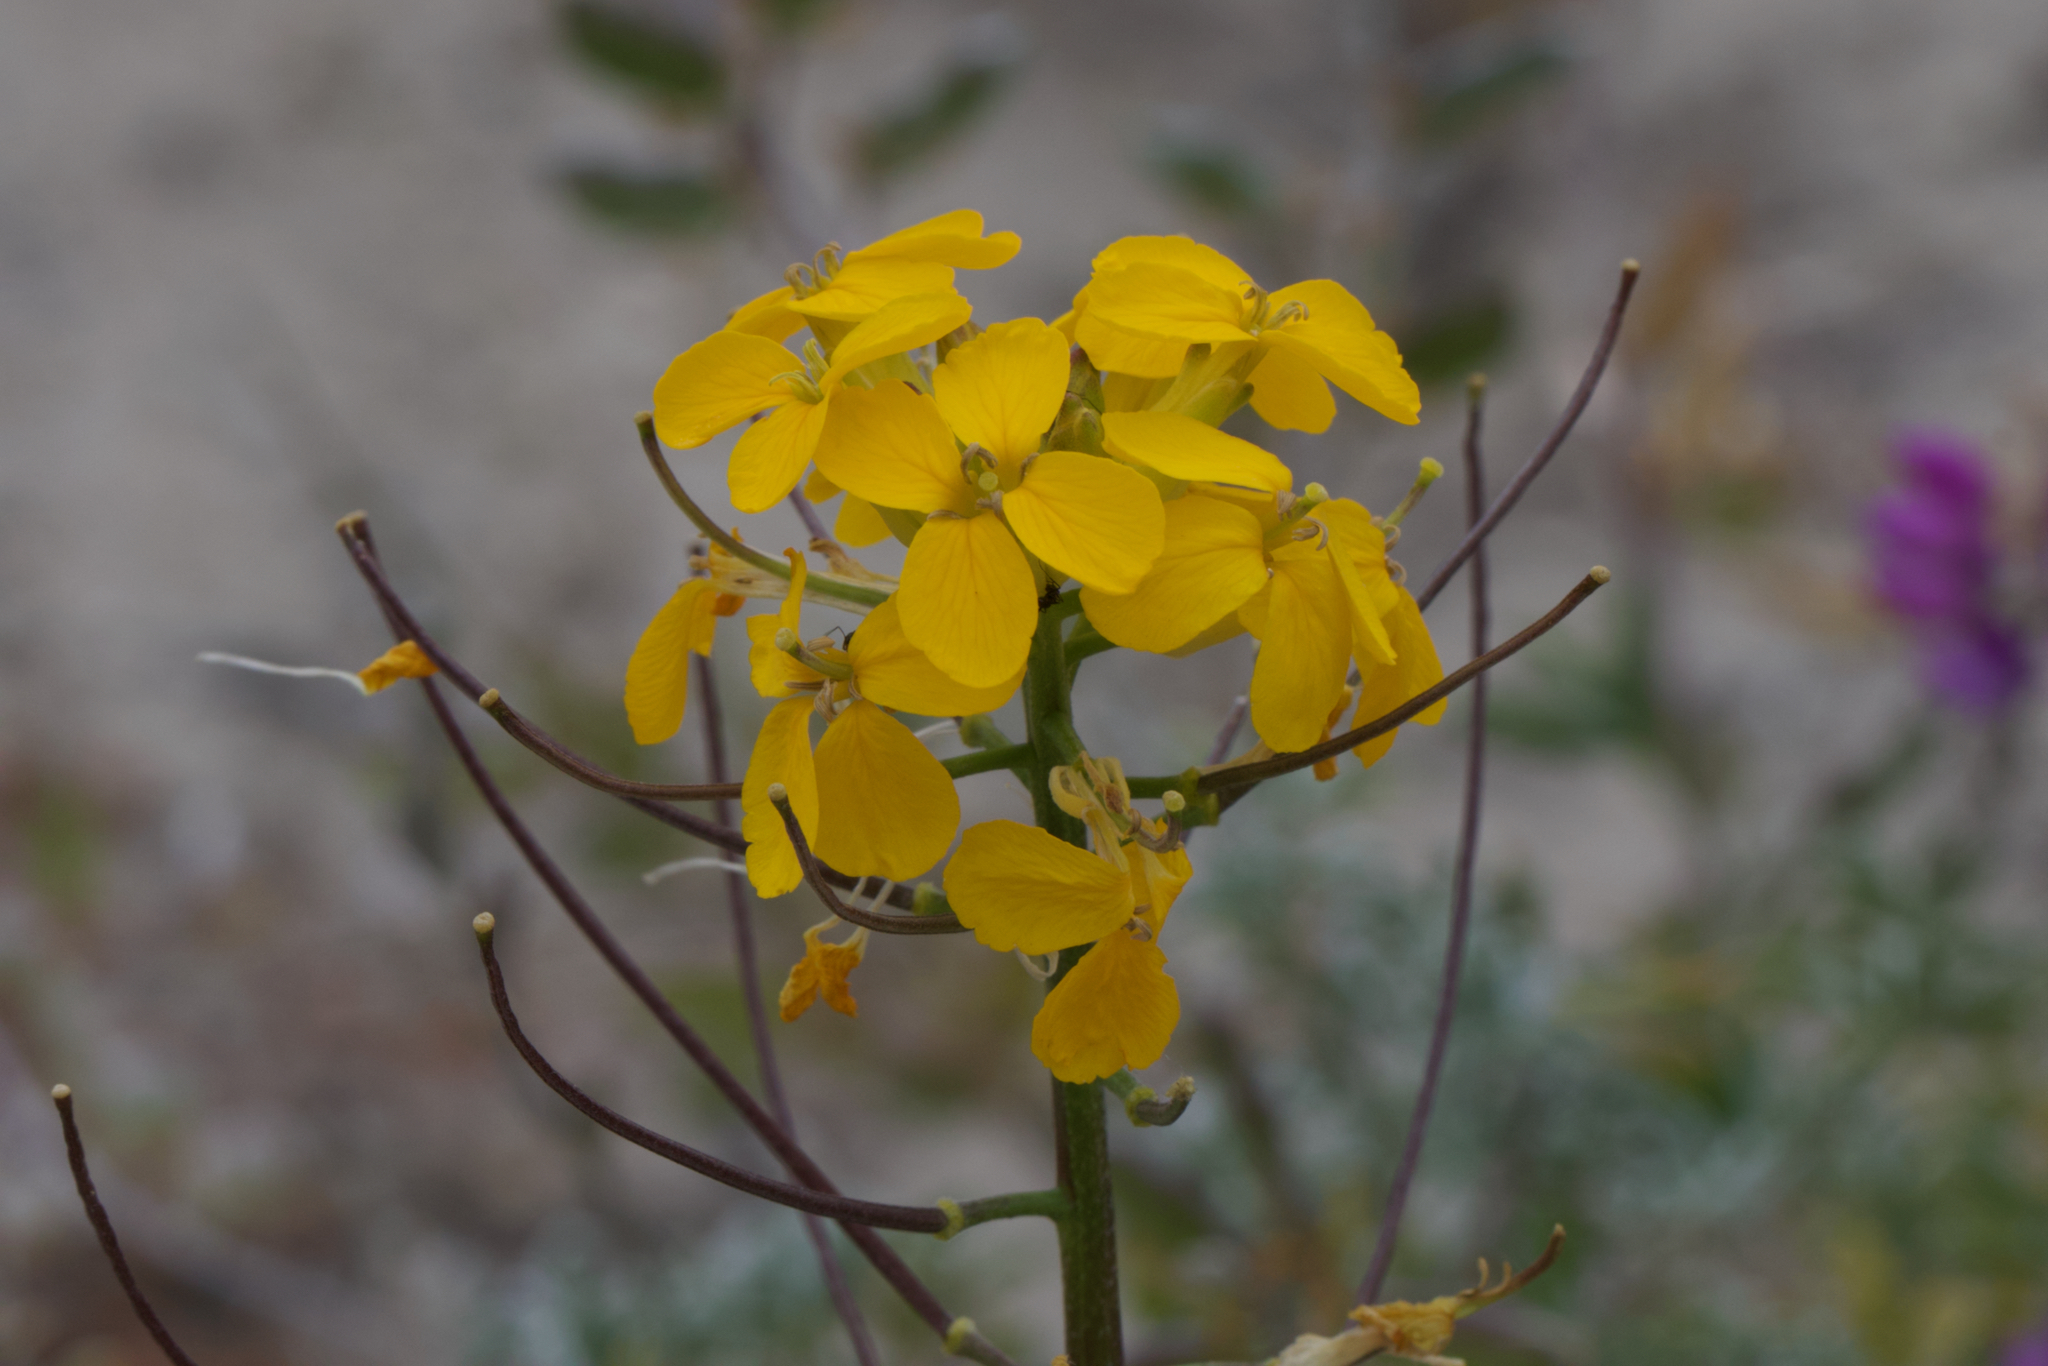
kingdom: Plantae
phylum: Tracheophyta
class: Magnoliopsida
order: Brassicales
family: Brassicaceae
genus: Erysimum
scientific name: Erysimum teretifolium
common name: Ben lomond wallflower
